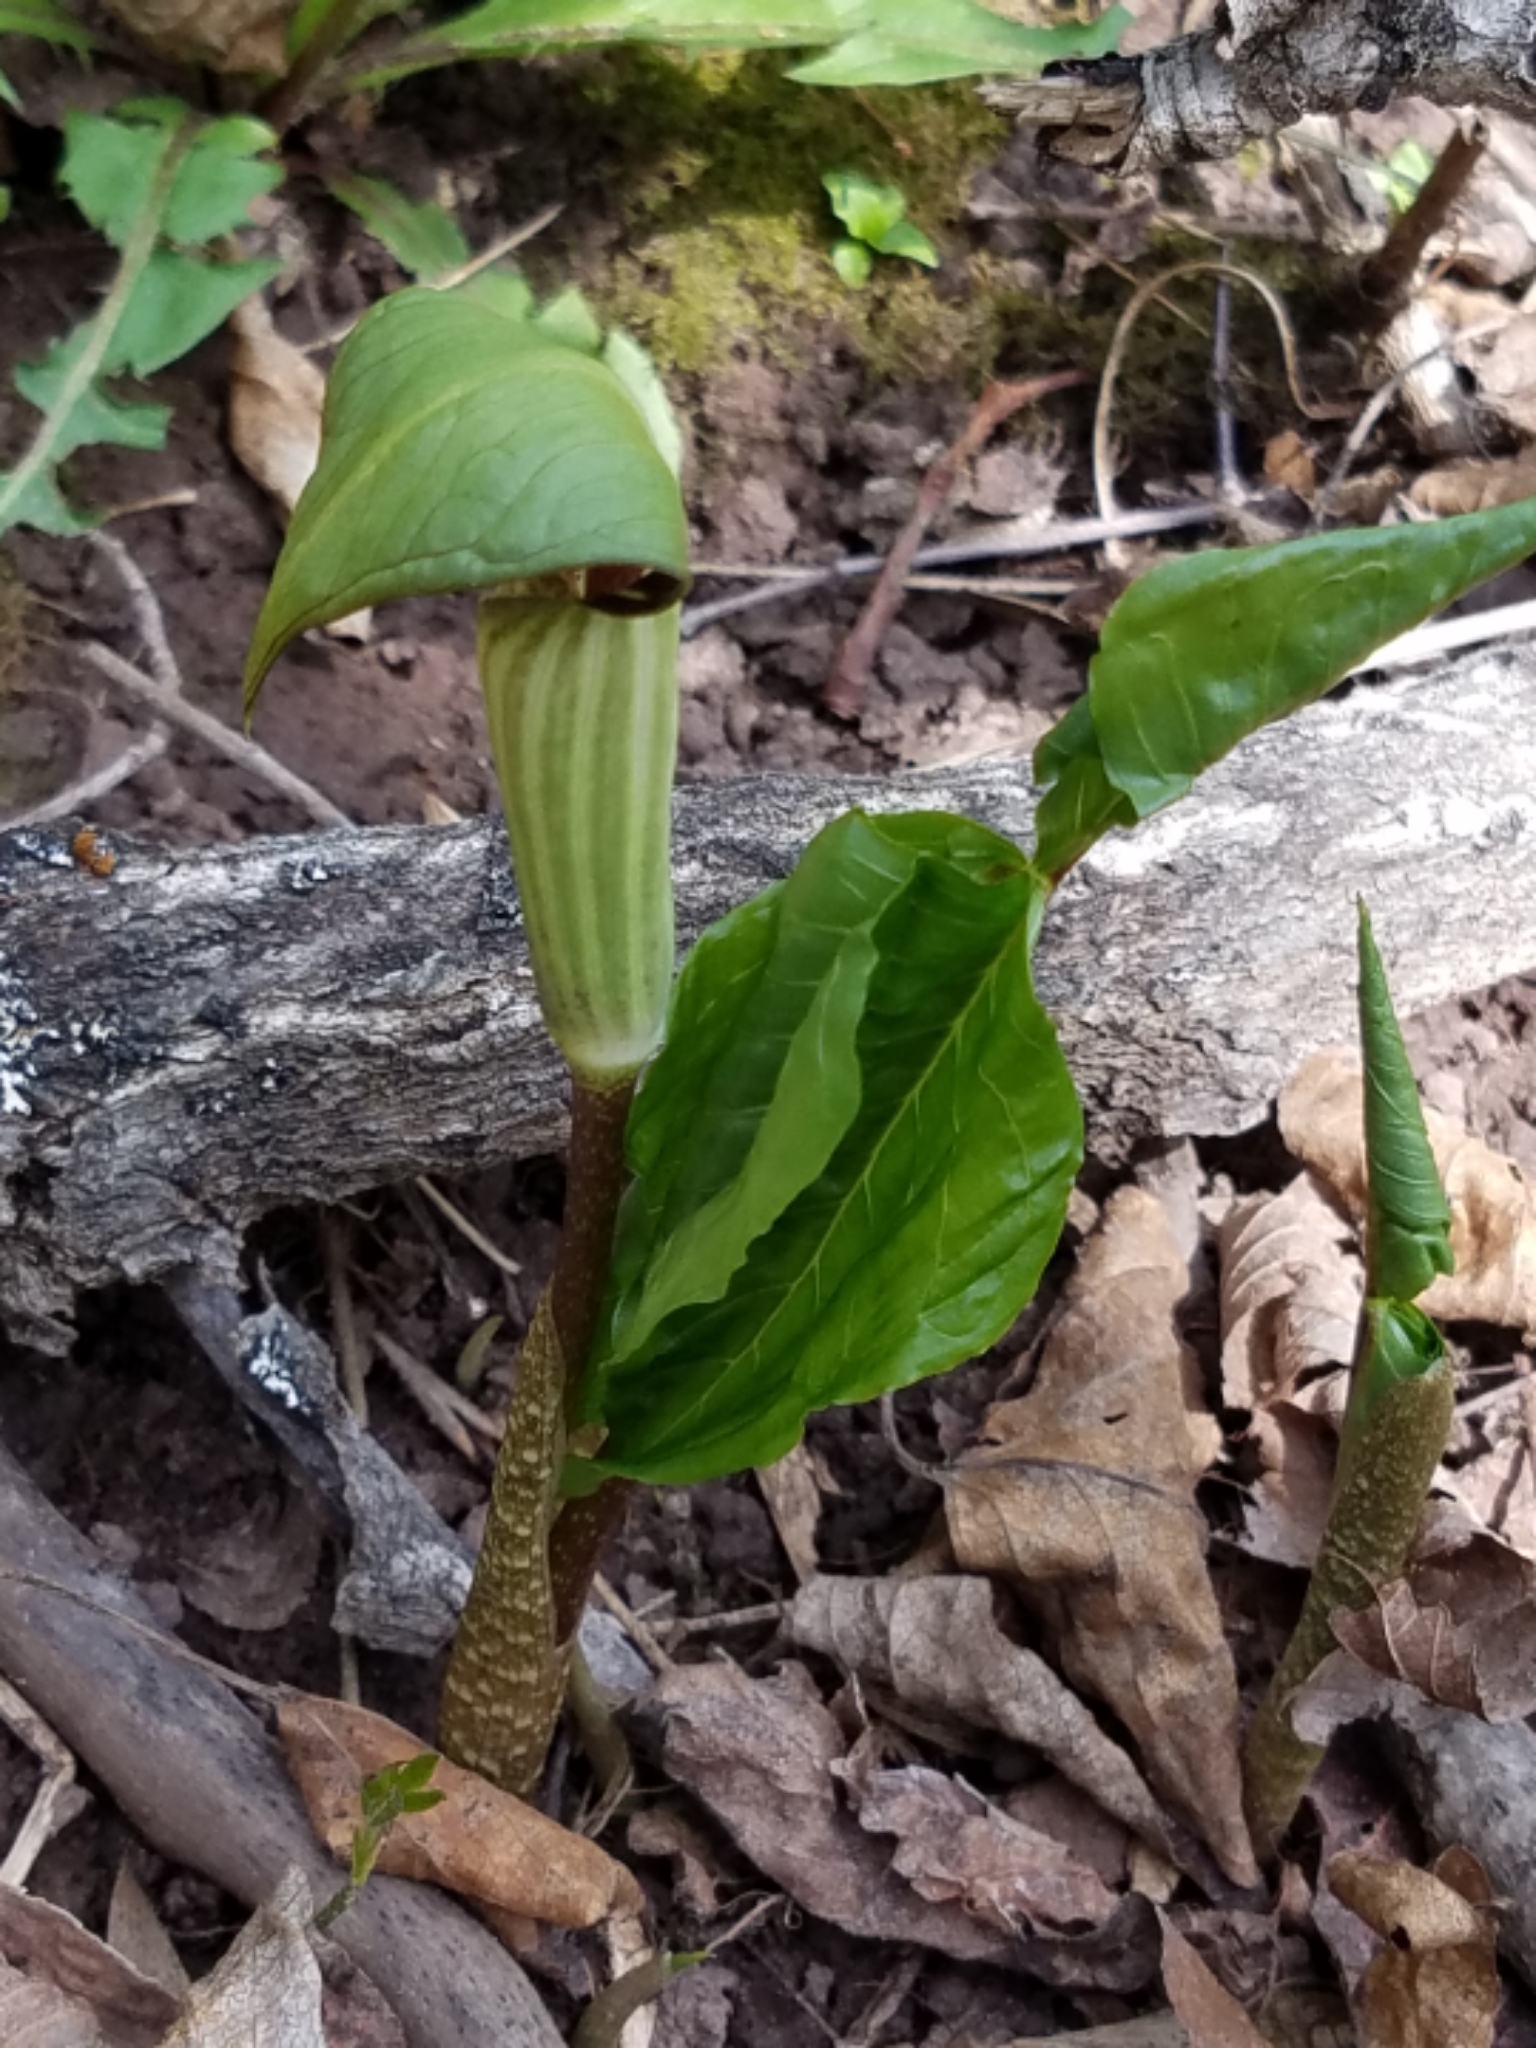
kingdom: Plantae
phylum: Tracheophyta
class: Liliopsida
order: Alismatales
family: Araceae
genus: Arisaema
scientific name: Arisaema triphyllum
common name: Jack-in-the-pulpit
